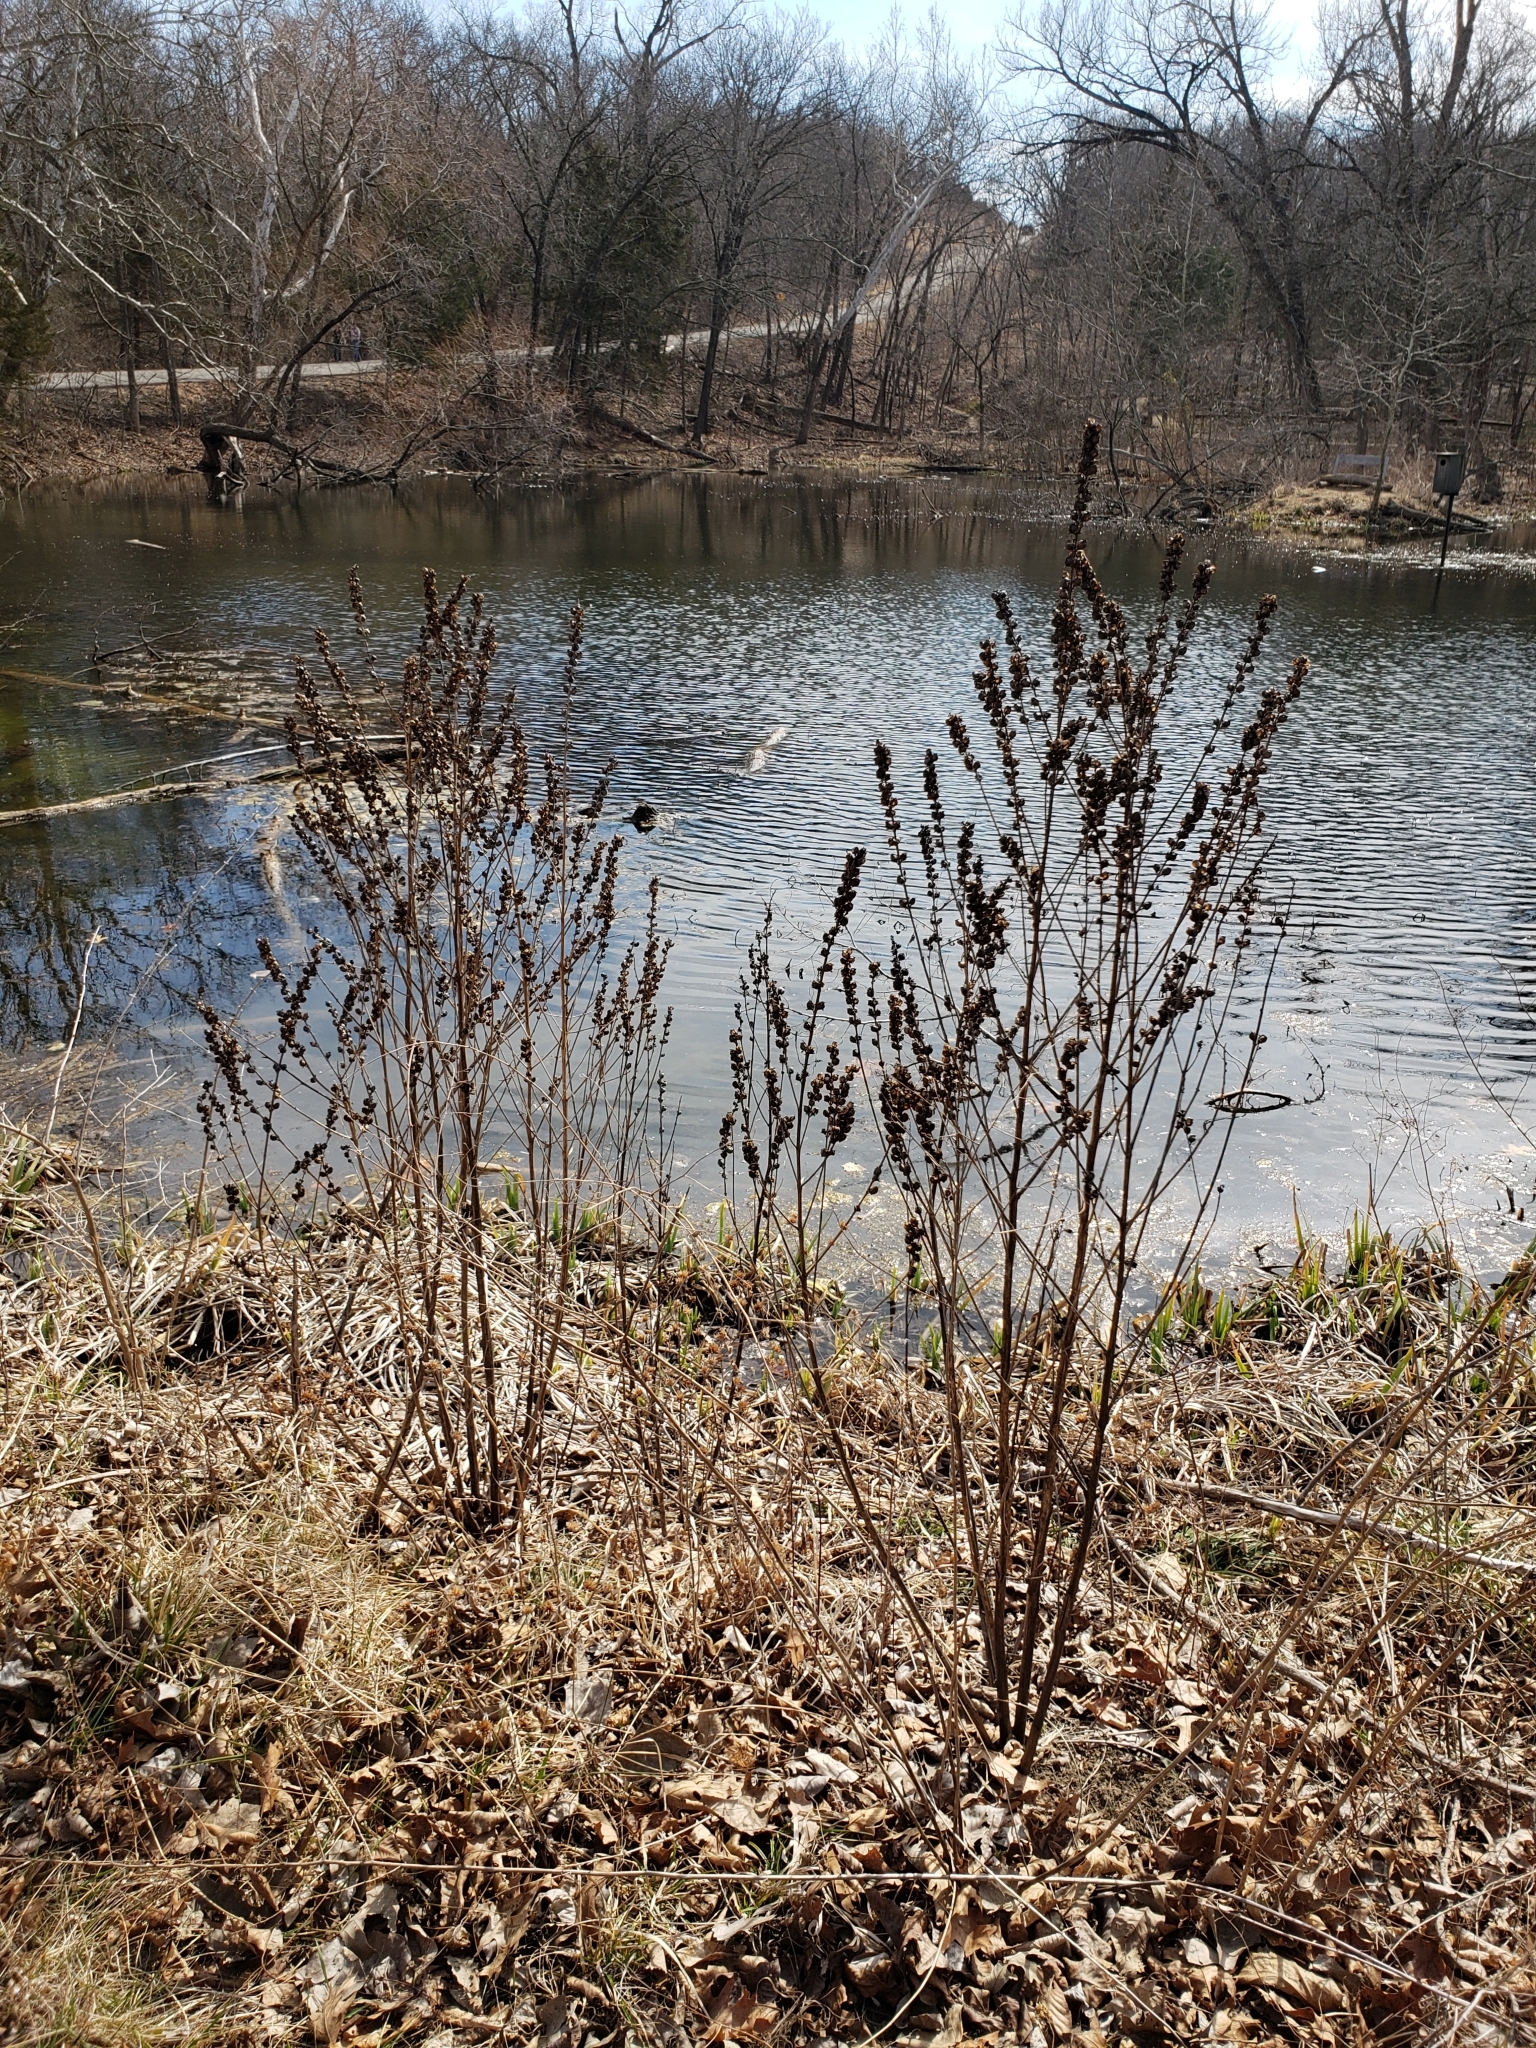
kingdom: Plantae
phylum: Tracheophyta
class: Magnoliopsida
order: Lamiales
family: Orobanchaceae
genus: Dasistoma
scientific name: Dasistoma macrophyllum
